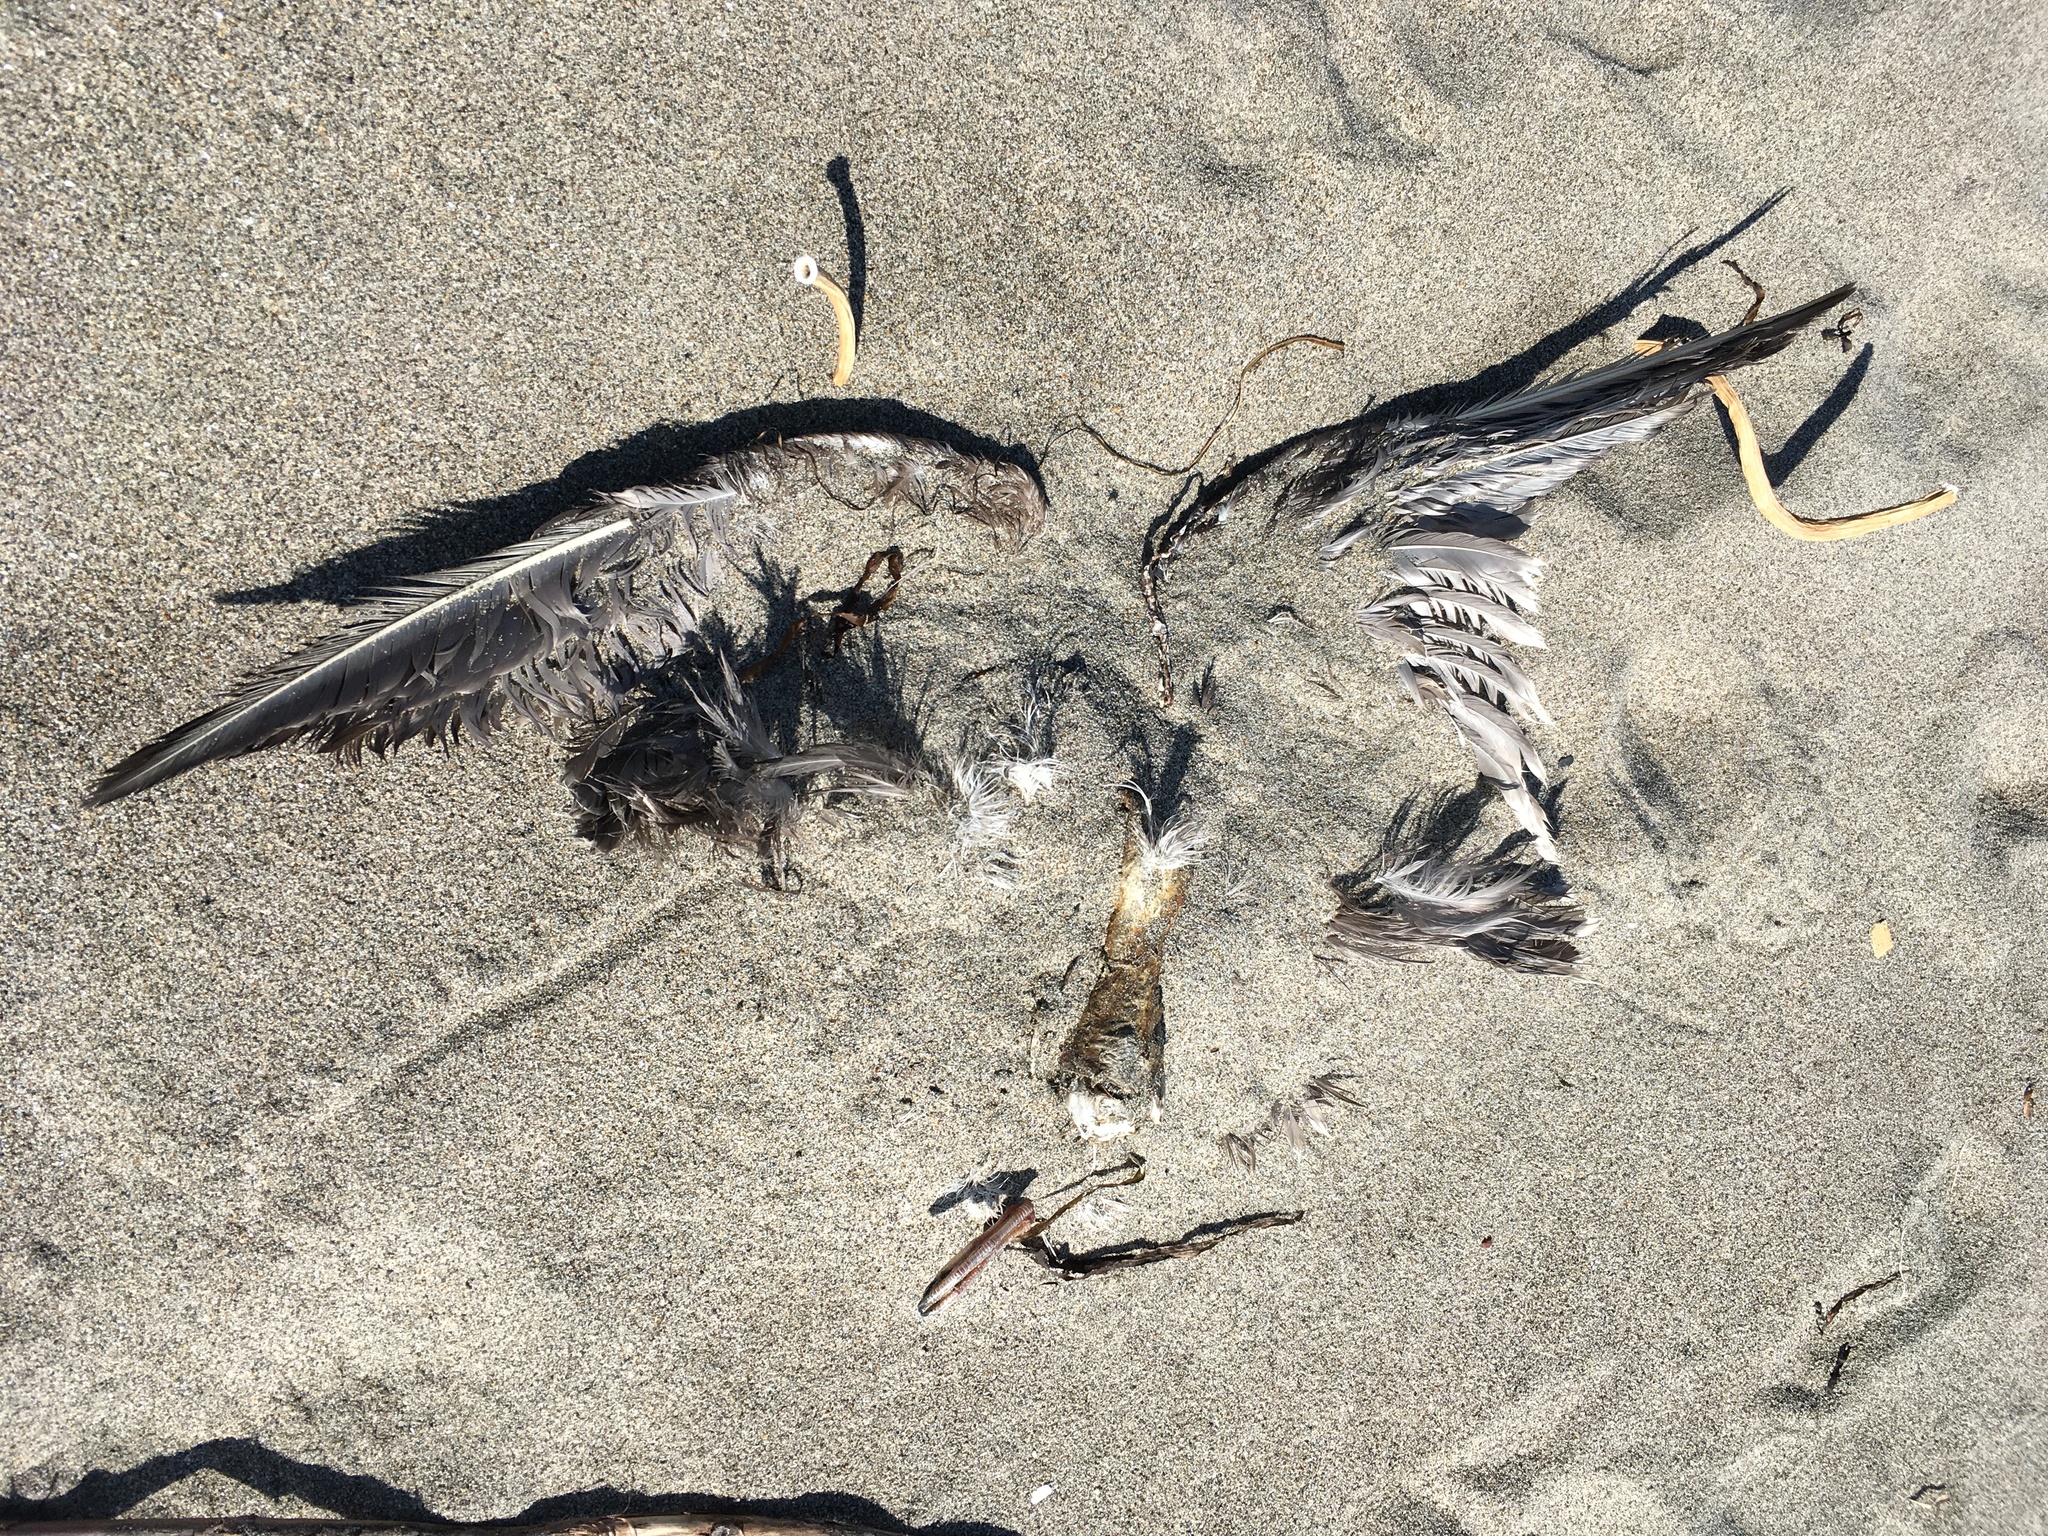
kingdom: Animalia
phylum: Chordata
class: Aves
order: Procellariiformes
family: Procellariidae
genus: Fulmarus
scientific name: Fulmarus glacialis
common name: Northern fulmar
